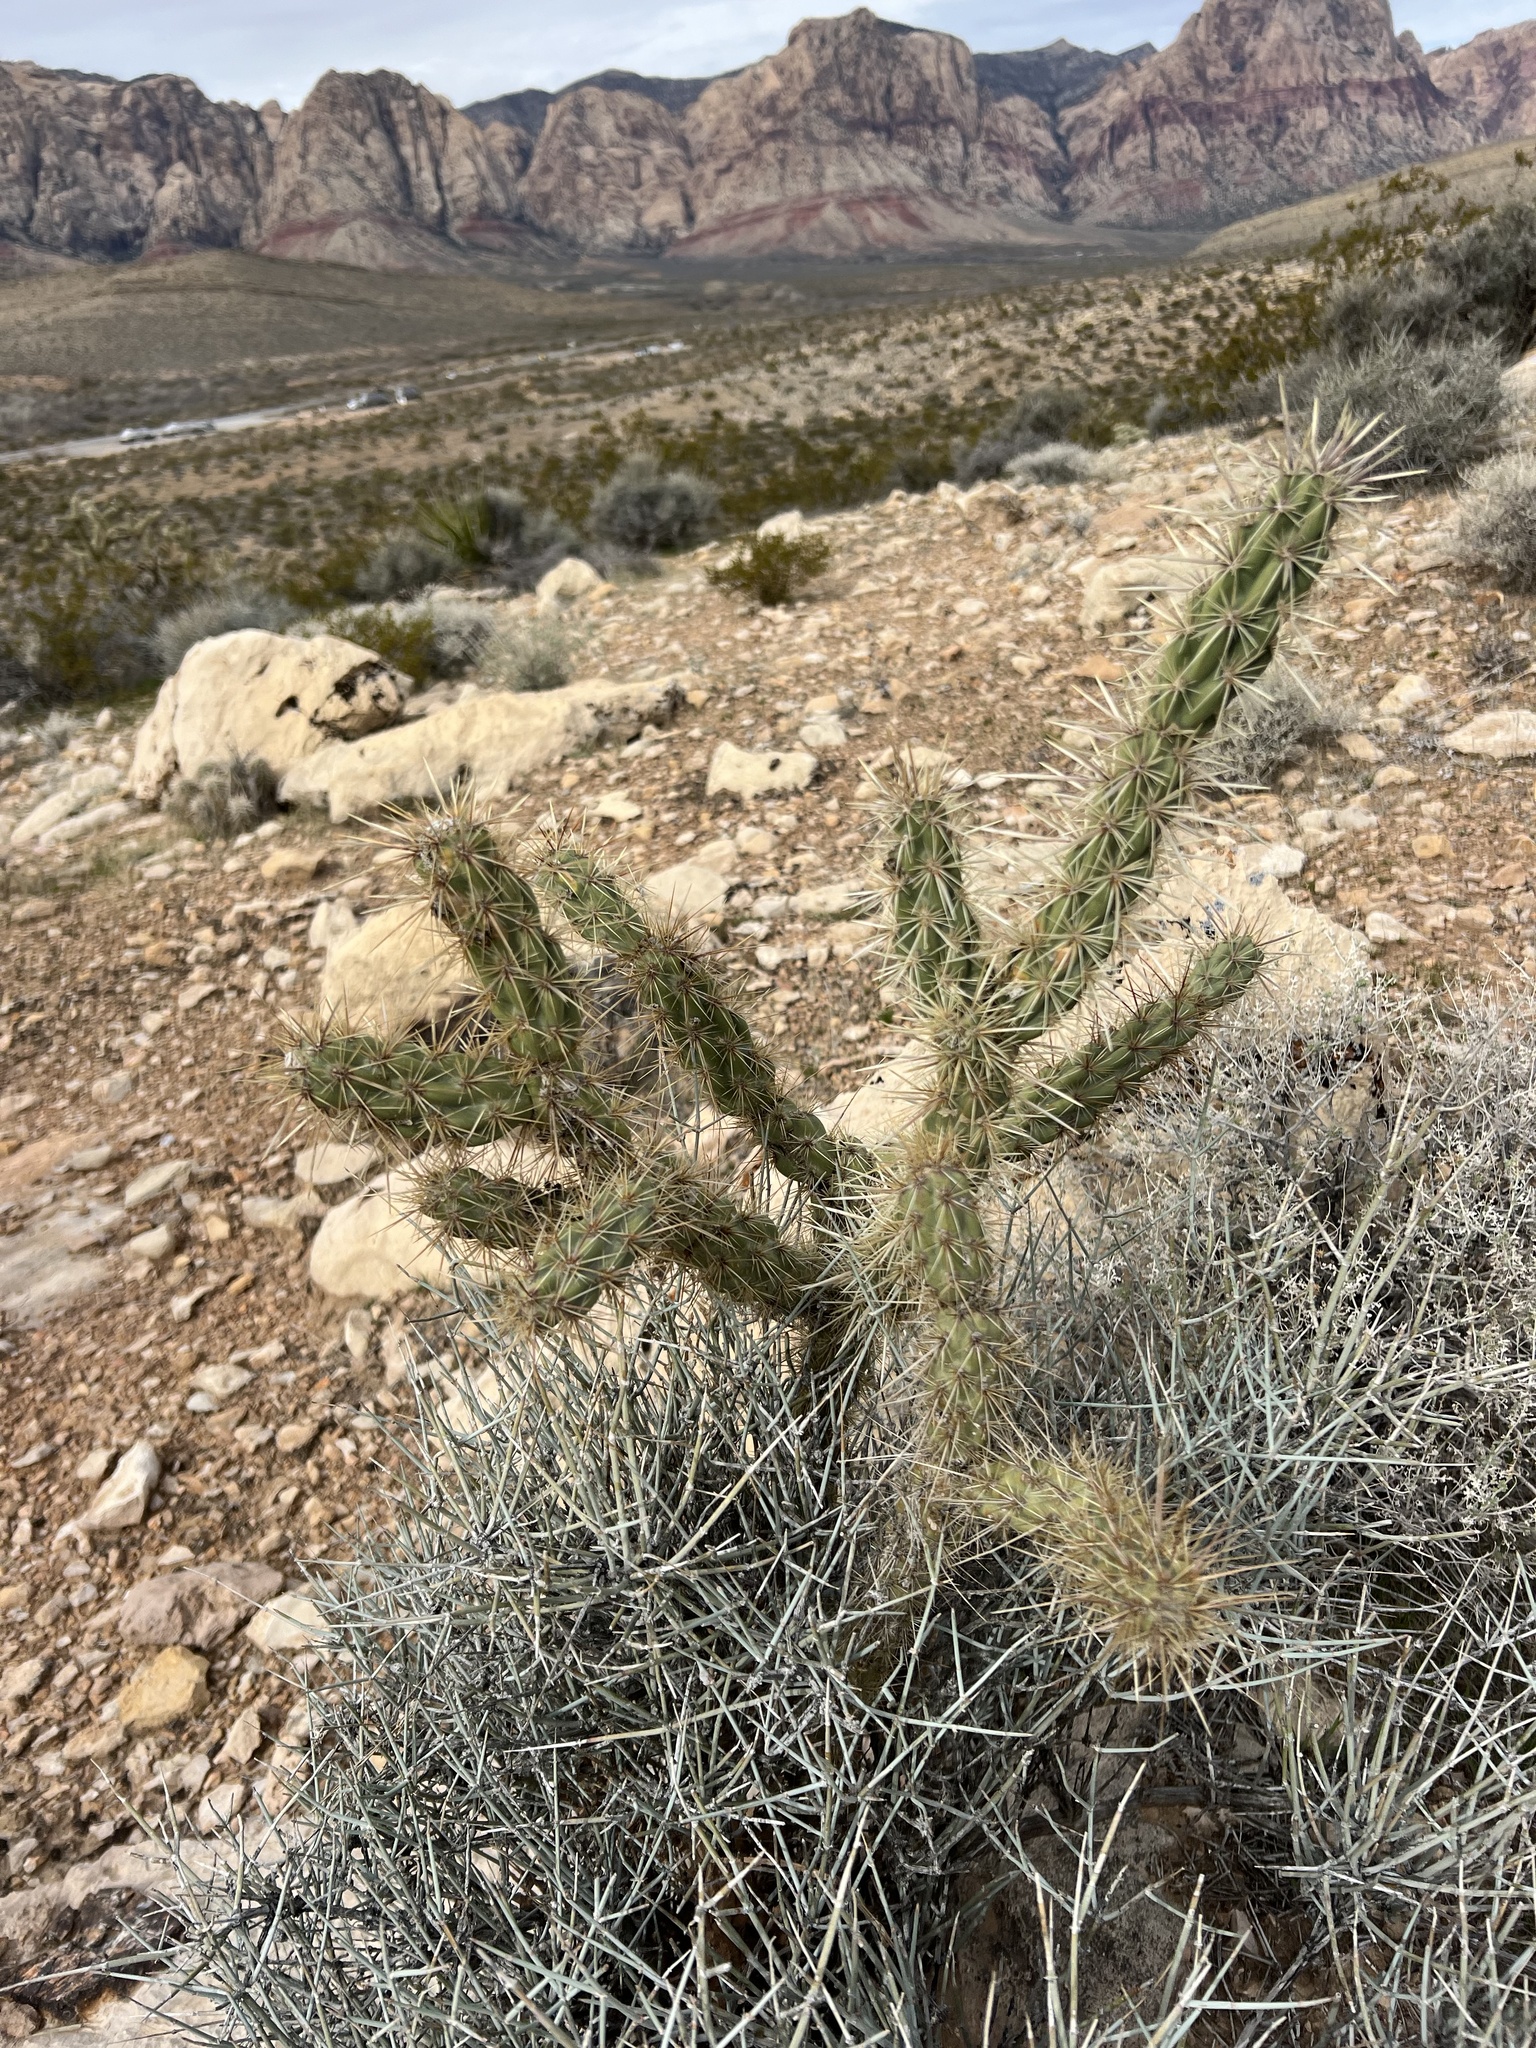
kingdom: Plantae
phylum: Tracheophyta
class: Magnoliopsida
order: Caryophyllales
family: Cactaceae
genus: Cylindropuntia
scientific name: Cylindropuntia acanthocarpa
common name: Buckhorn cholla
